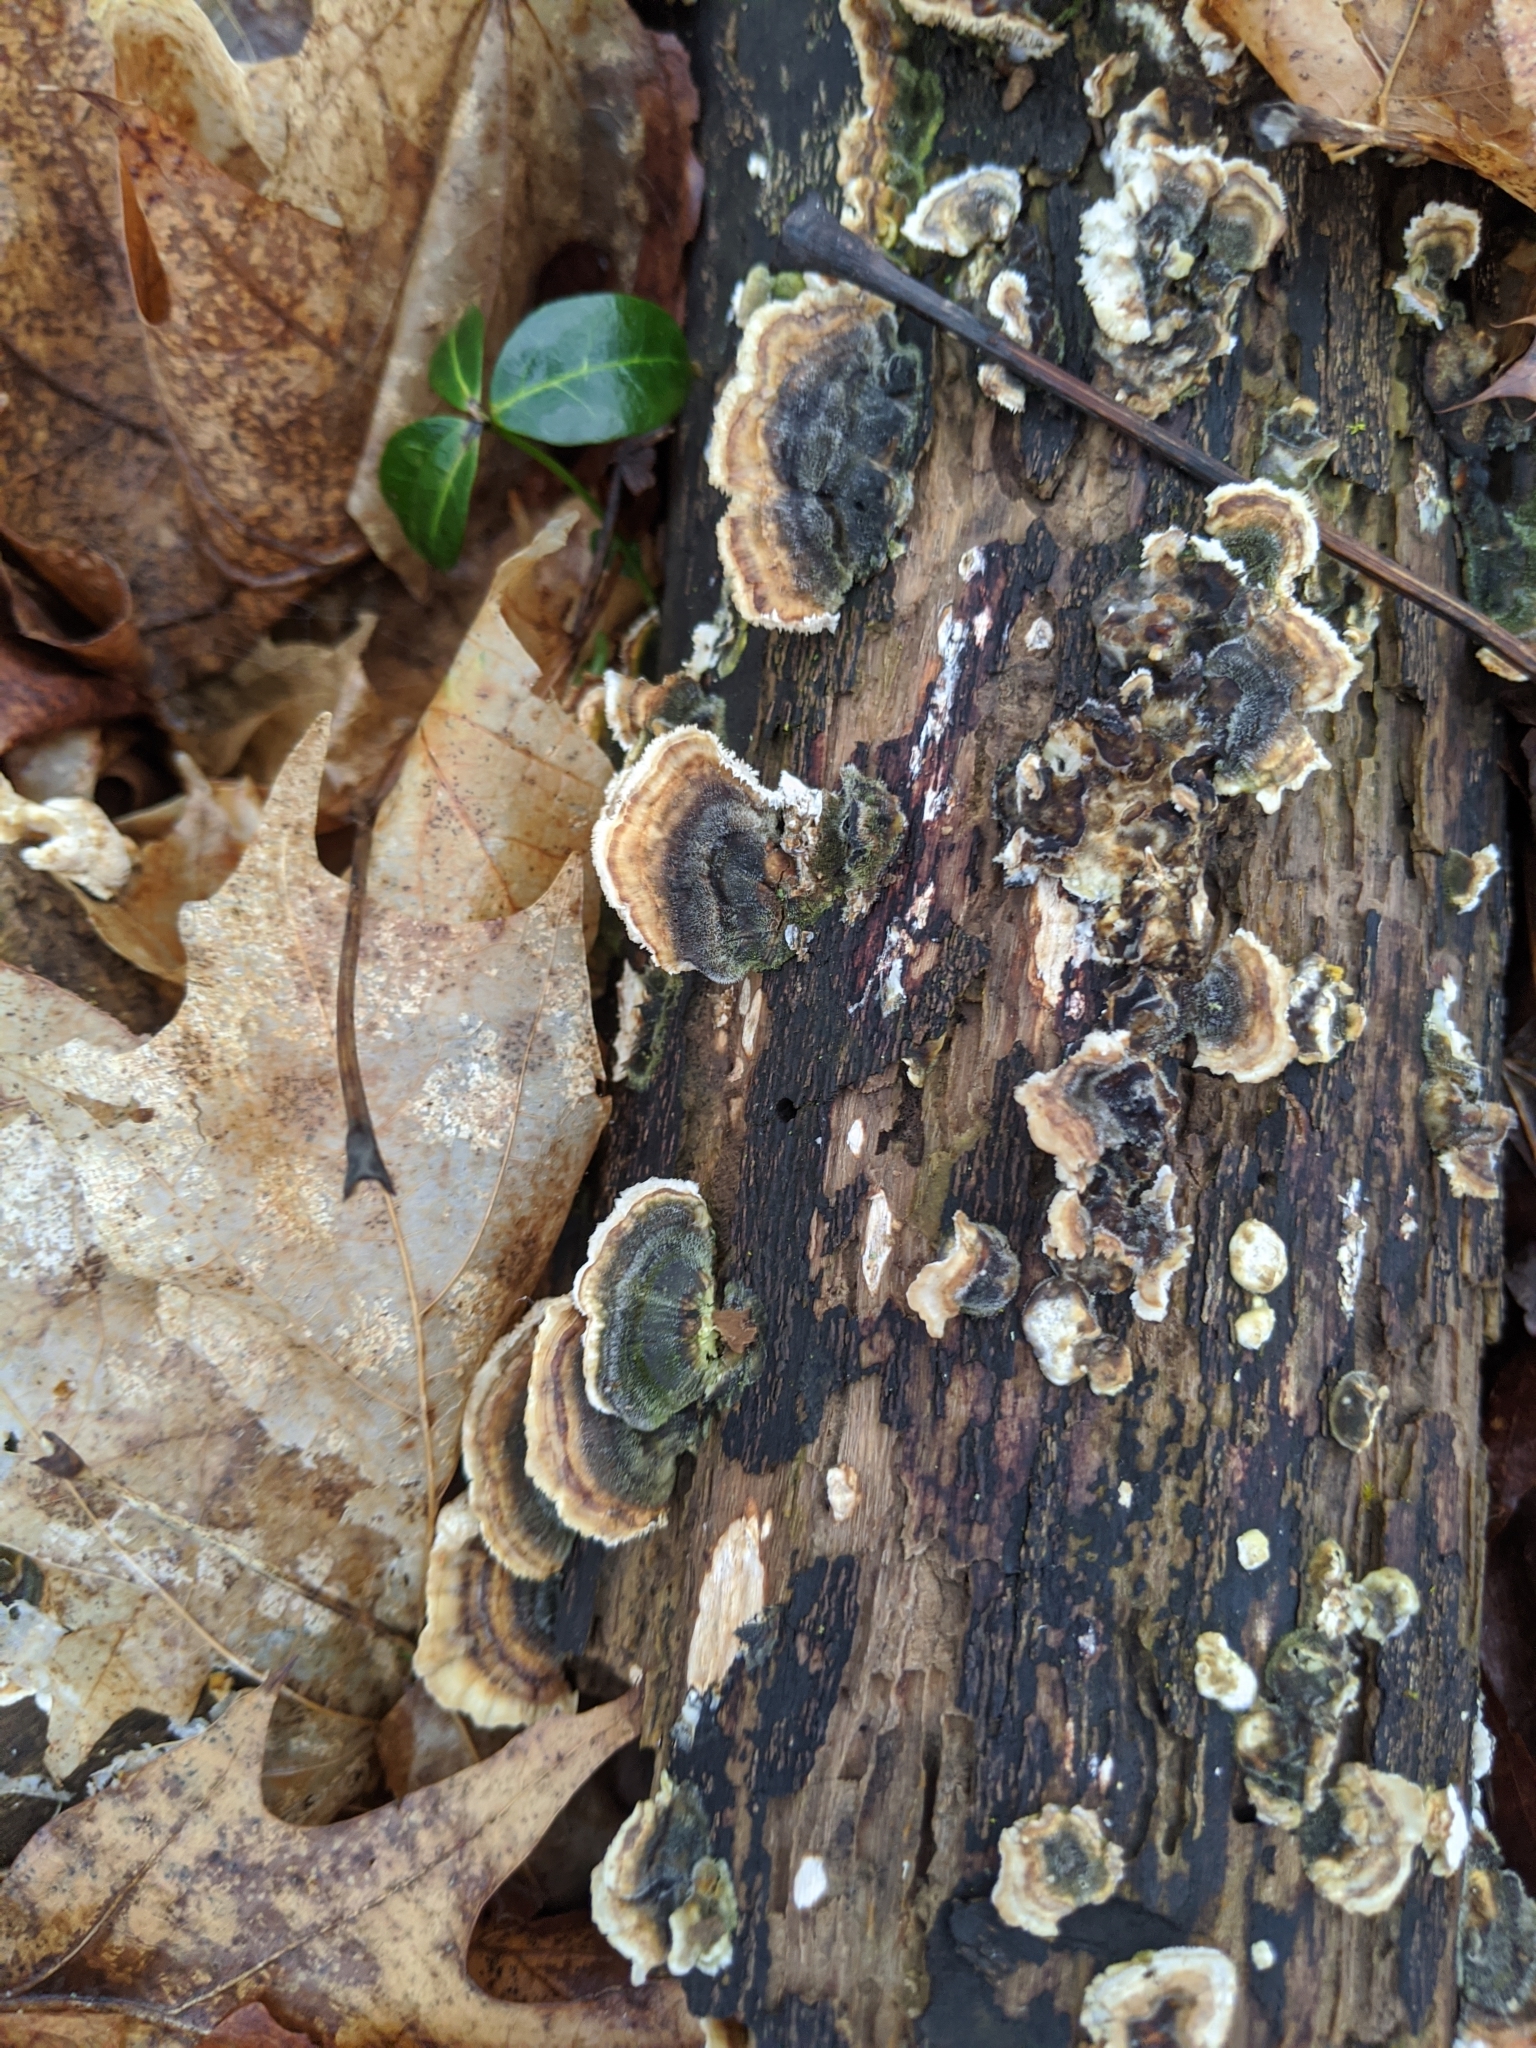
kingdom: Fungi
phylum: Basidiomycota
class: Agaricomycetes
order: Polyporales
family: Polyporaceae
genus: Trametes
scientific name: Trametes versicolor
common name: Turkeytail
